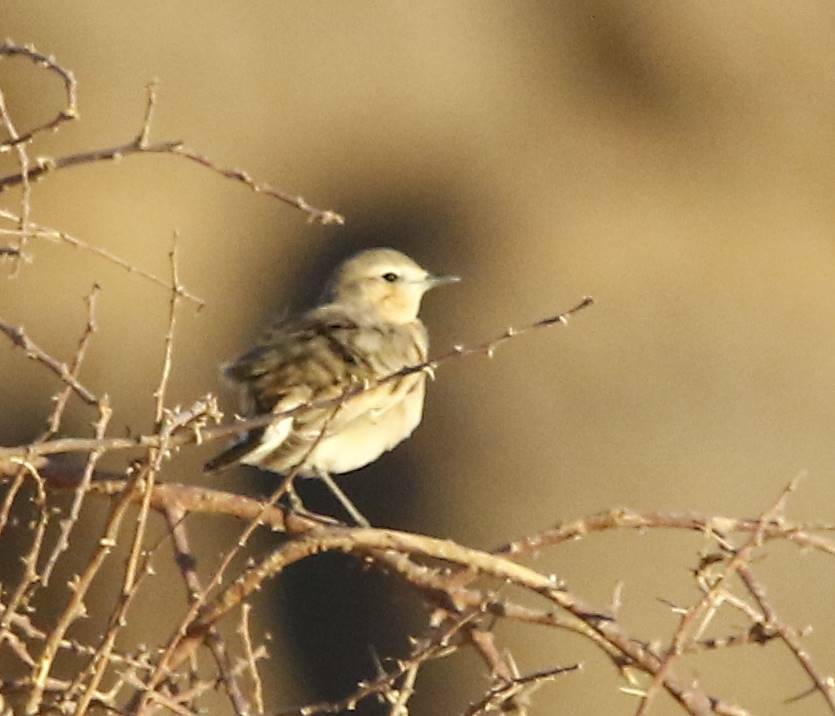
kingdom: Animalia
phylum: Chordata
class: Aves
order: Passeriformes
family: Muscicapidae
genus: Oenanthe
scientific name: Oenanthe isabellina
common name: Isabelline wheatear
